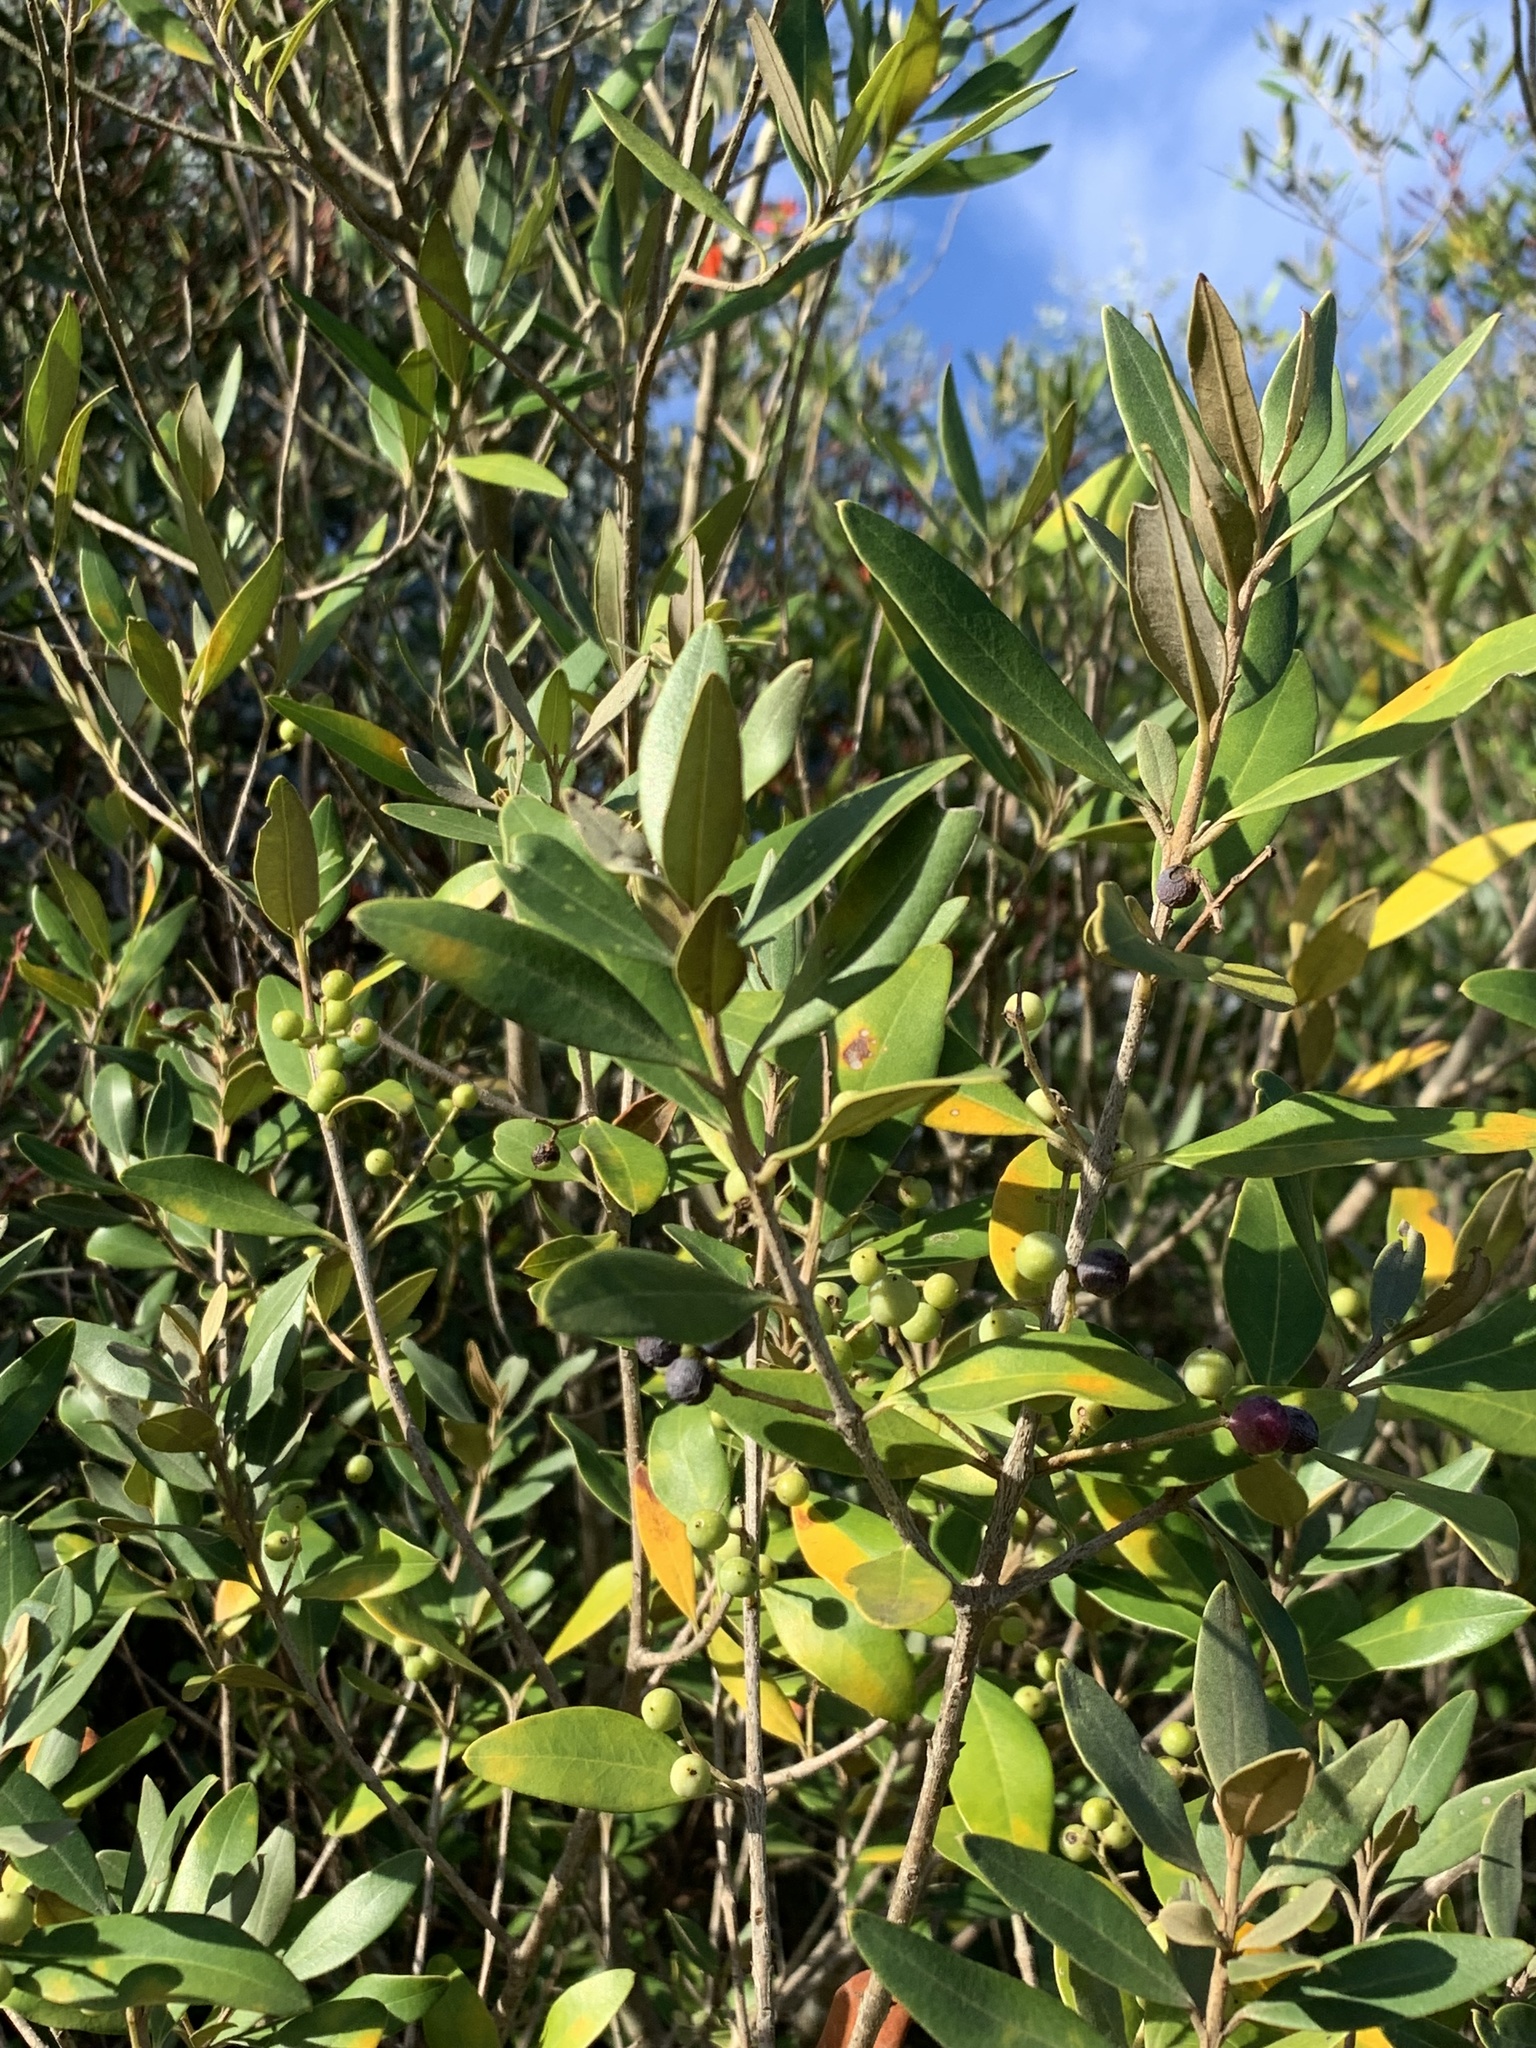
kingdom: Plantae
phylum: Tracheophyta
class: Magnoliopsida
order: Lamiales
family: Oleaceae
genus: Olea
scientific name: Olea europaea
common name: Olive
